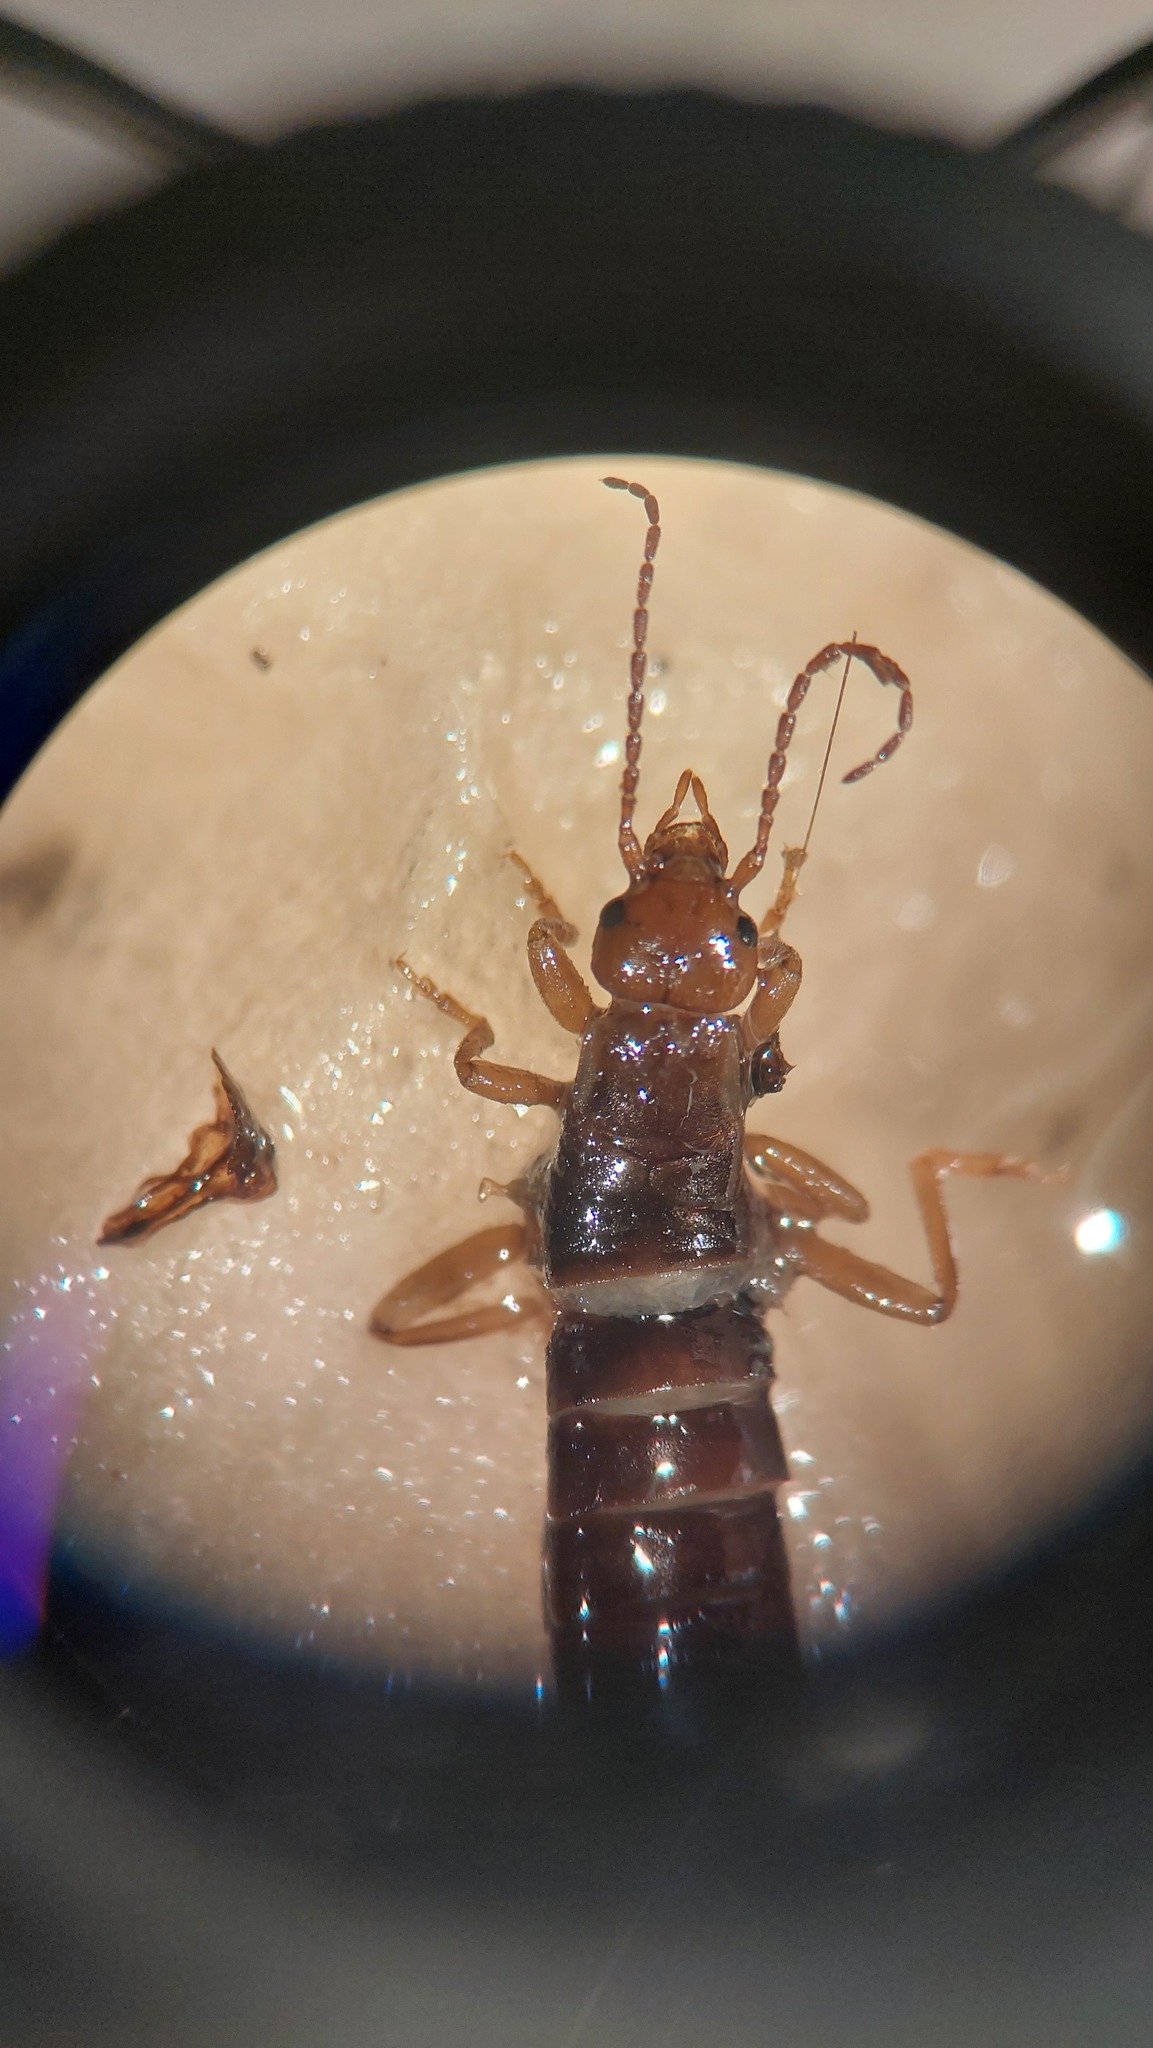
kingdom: Animalia
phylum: Arthropoda
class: Insecta
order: Dermaptera
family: Forficulidae
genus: Chelidurella
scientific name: Chelidurella acanthopygia
